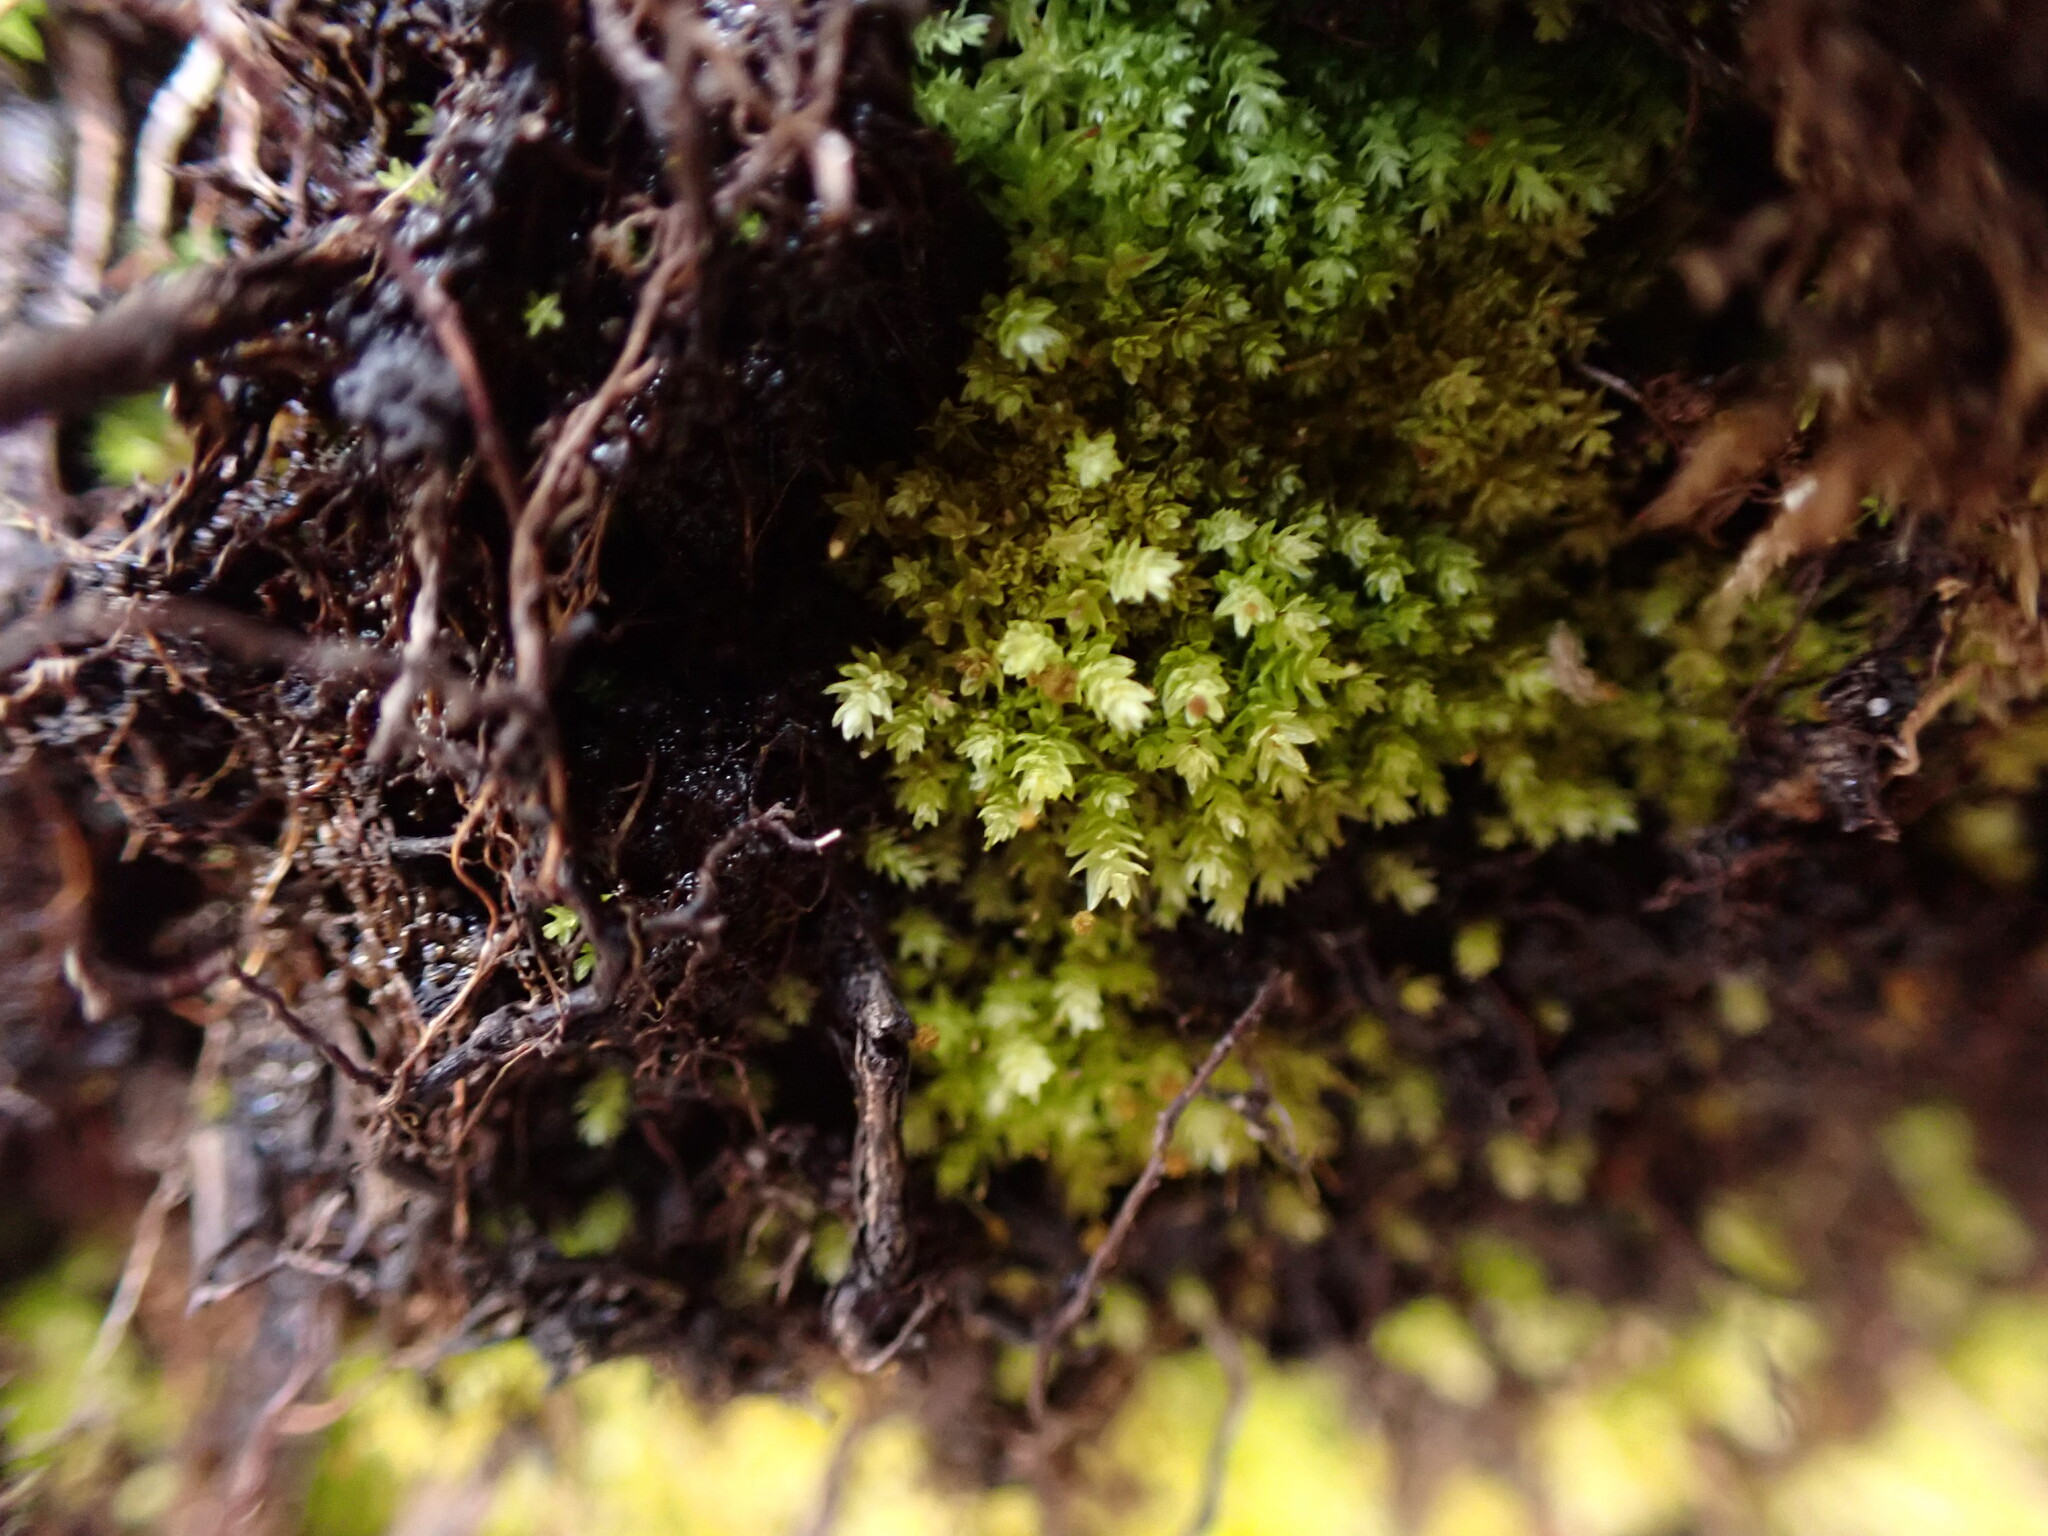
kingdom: Plantae
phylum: Bryophyta
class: Bryopsida
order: Aulacomniales
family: Aulacomniaceae
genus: Aulacomnium
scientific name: Aulacomnium androgynum
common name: Little groove moss
